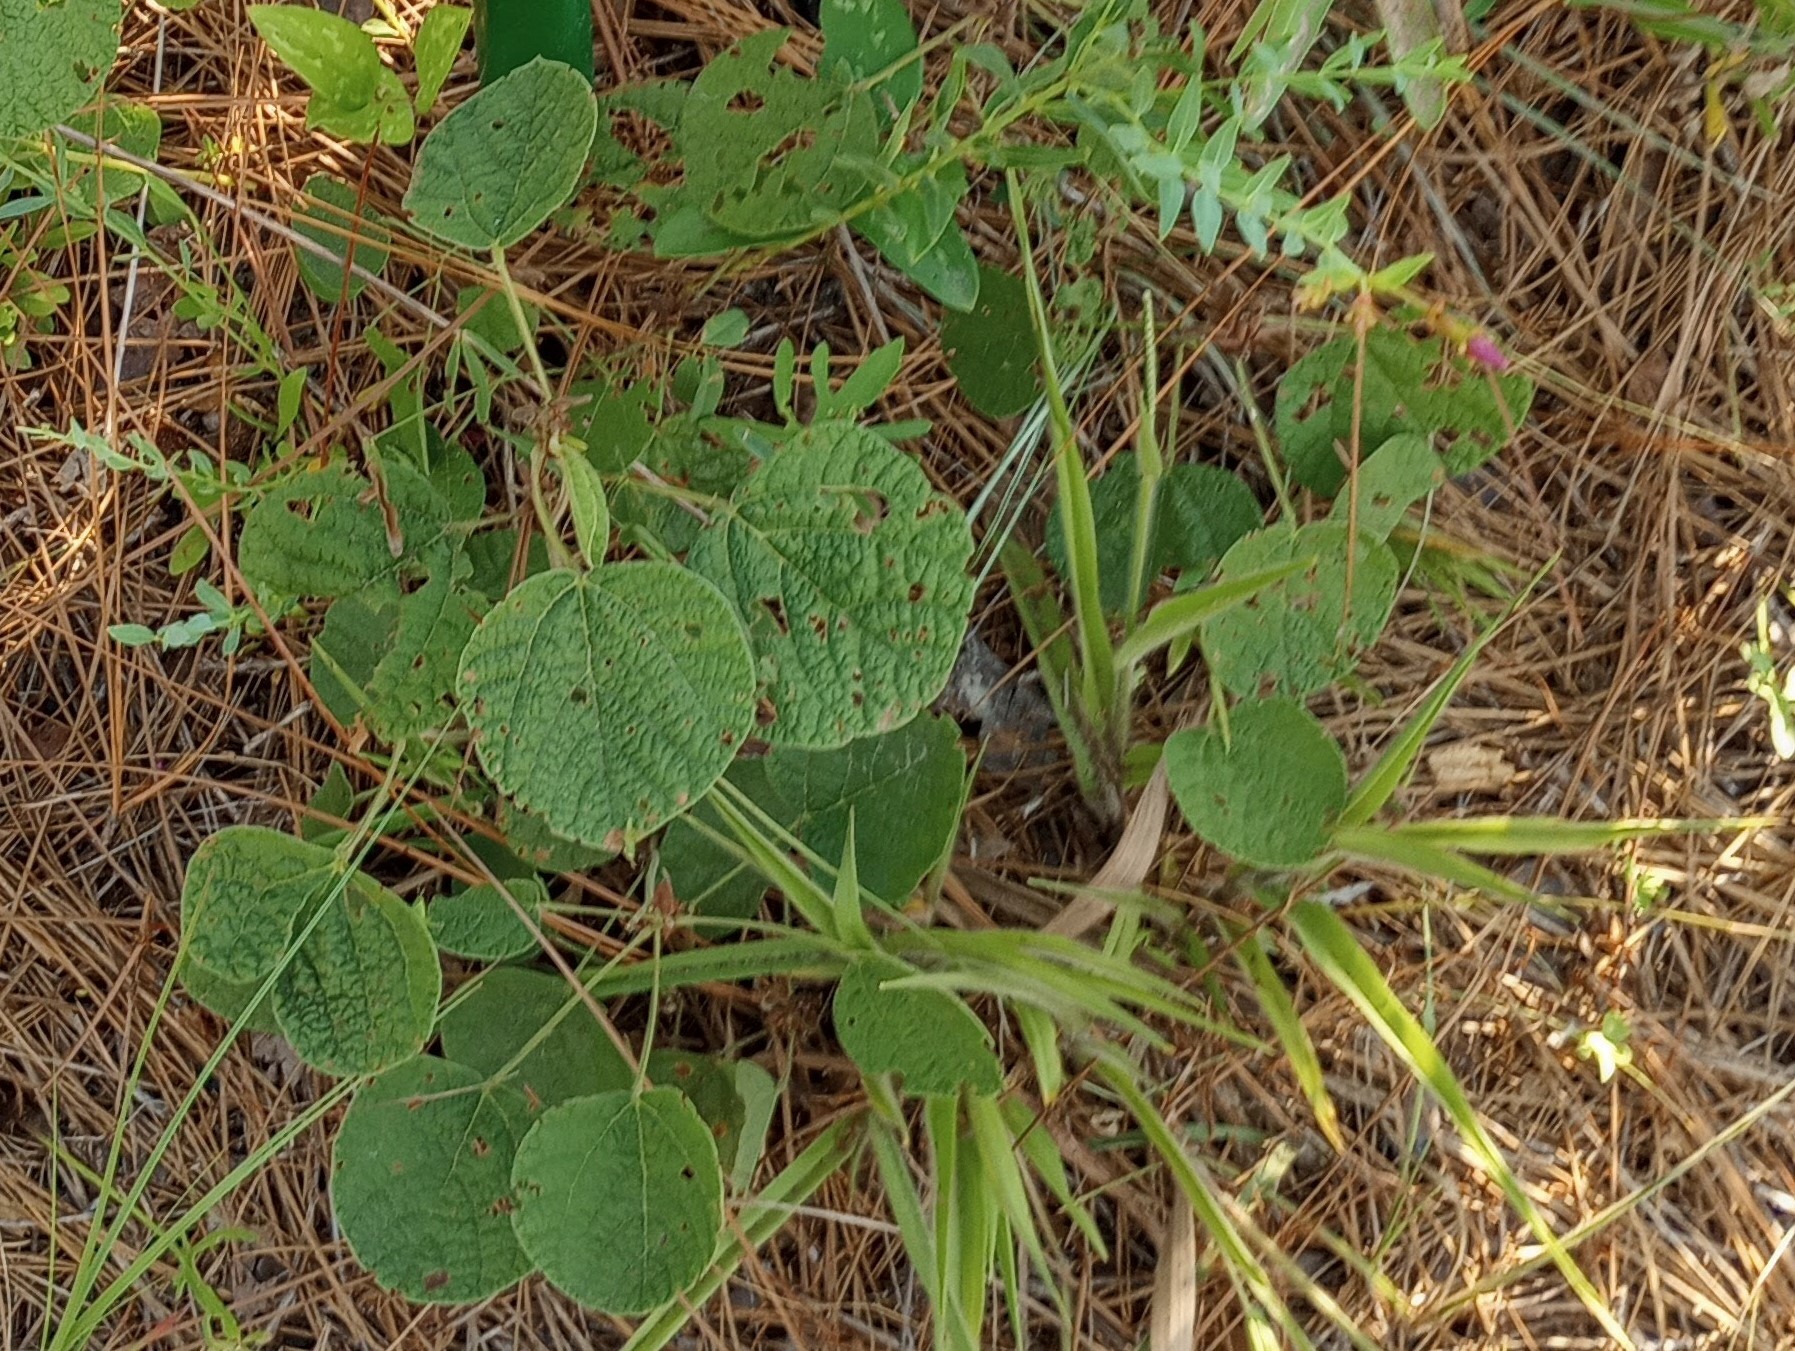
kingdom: Plantae
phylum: Tracheophyta
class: Magnoliopsida
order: Fabales
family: Fabaceae
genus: Rhynchosia
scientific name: Rhynchosia reniformis
